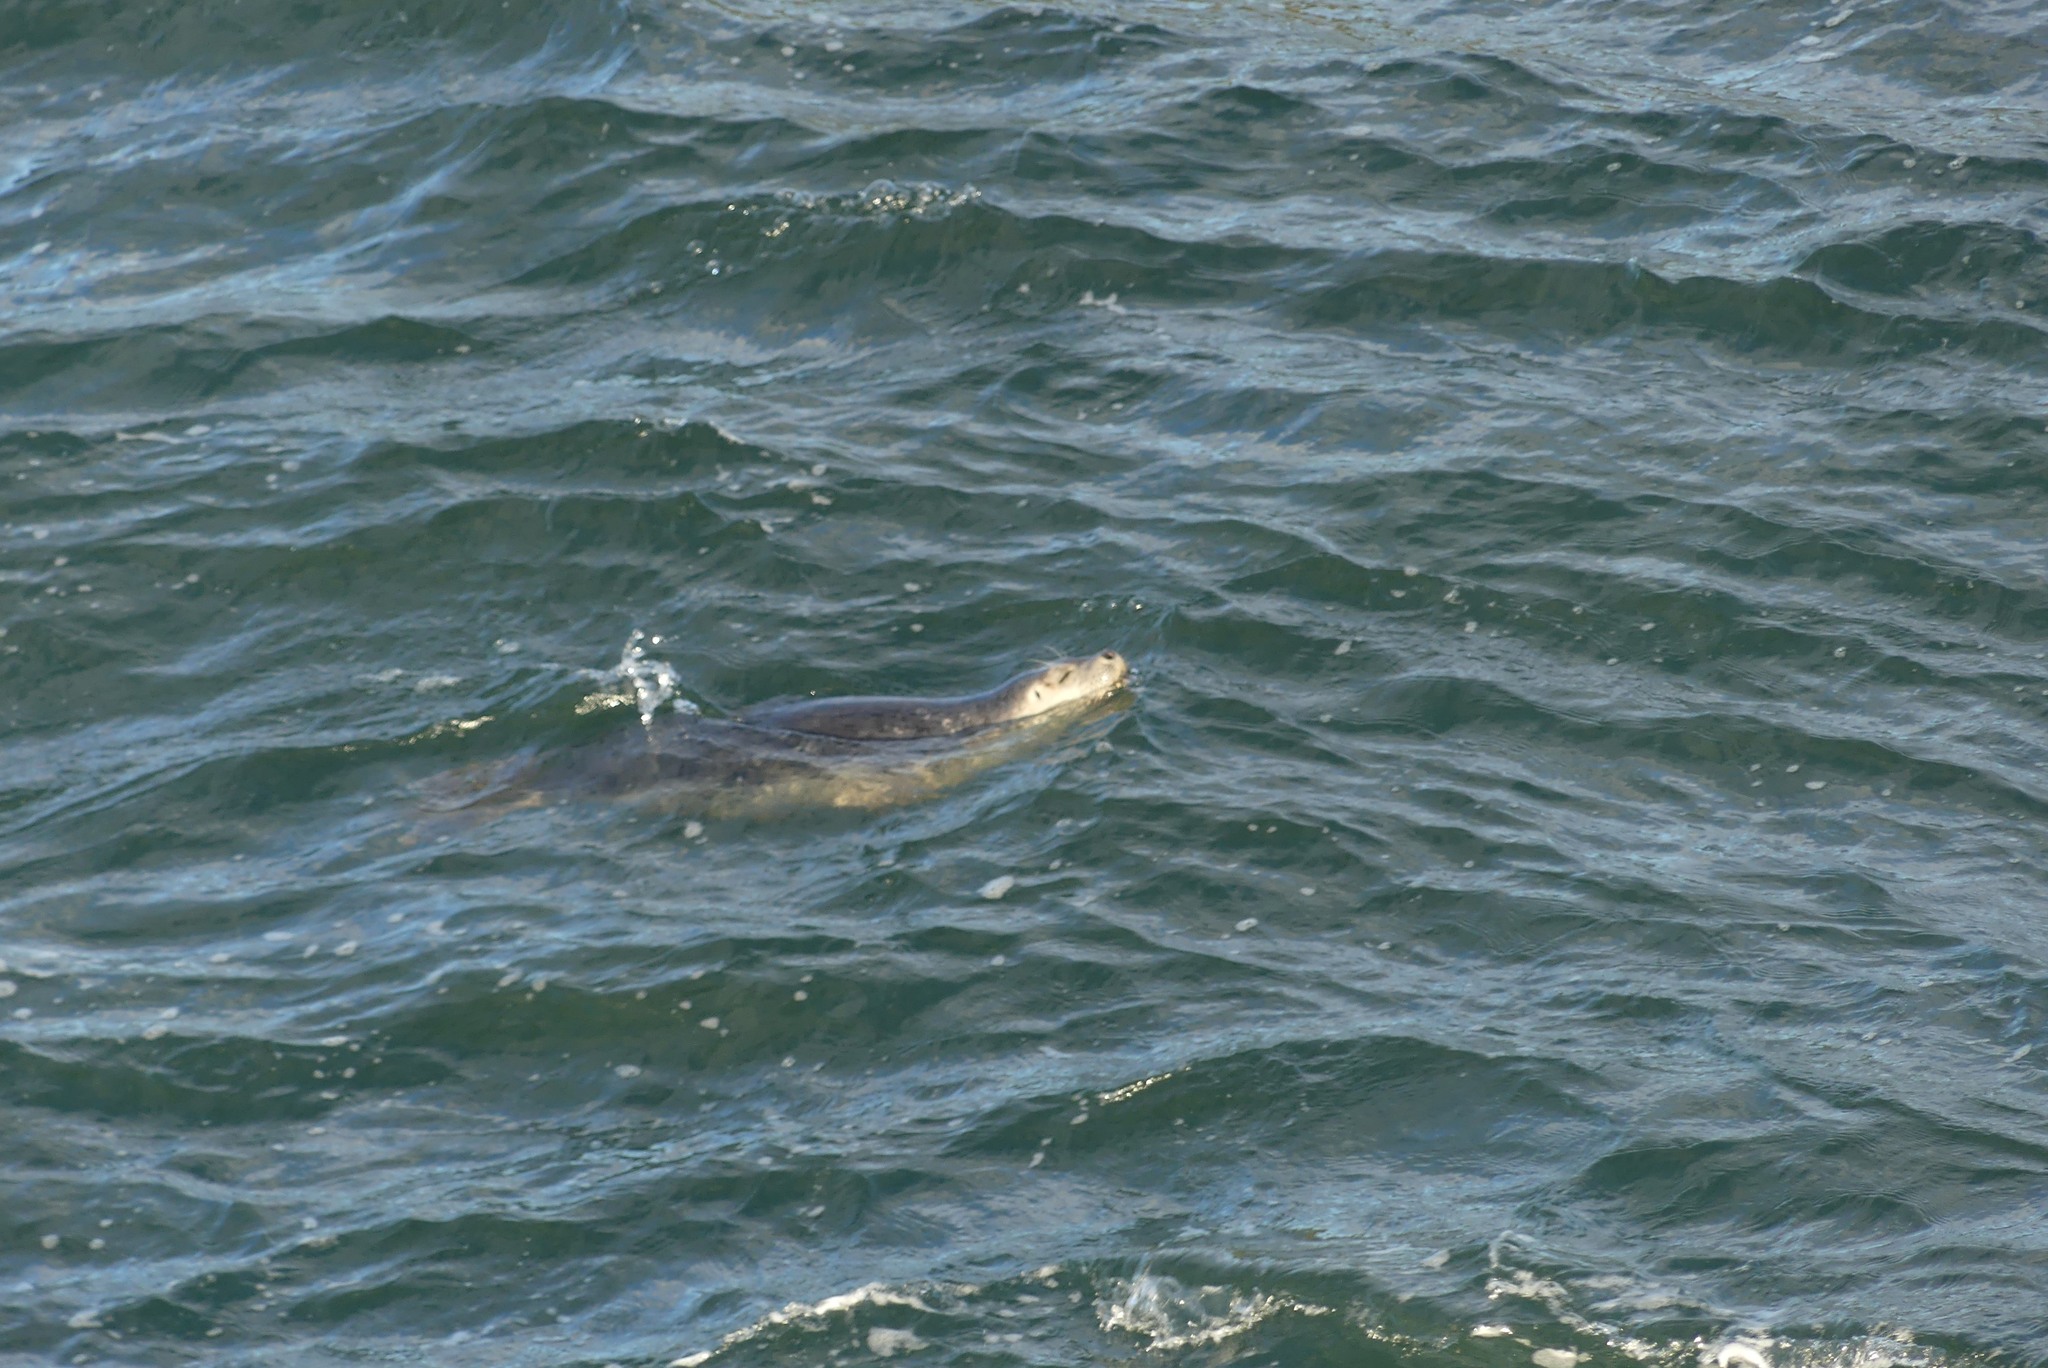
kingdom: Animalia
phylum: Chordata
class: Mammalia
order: Carnivora
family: Phocidae
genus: Phoca
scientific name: Phoca vitulina
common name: Harbor seal
